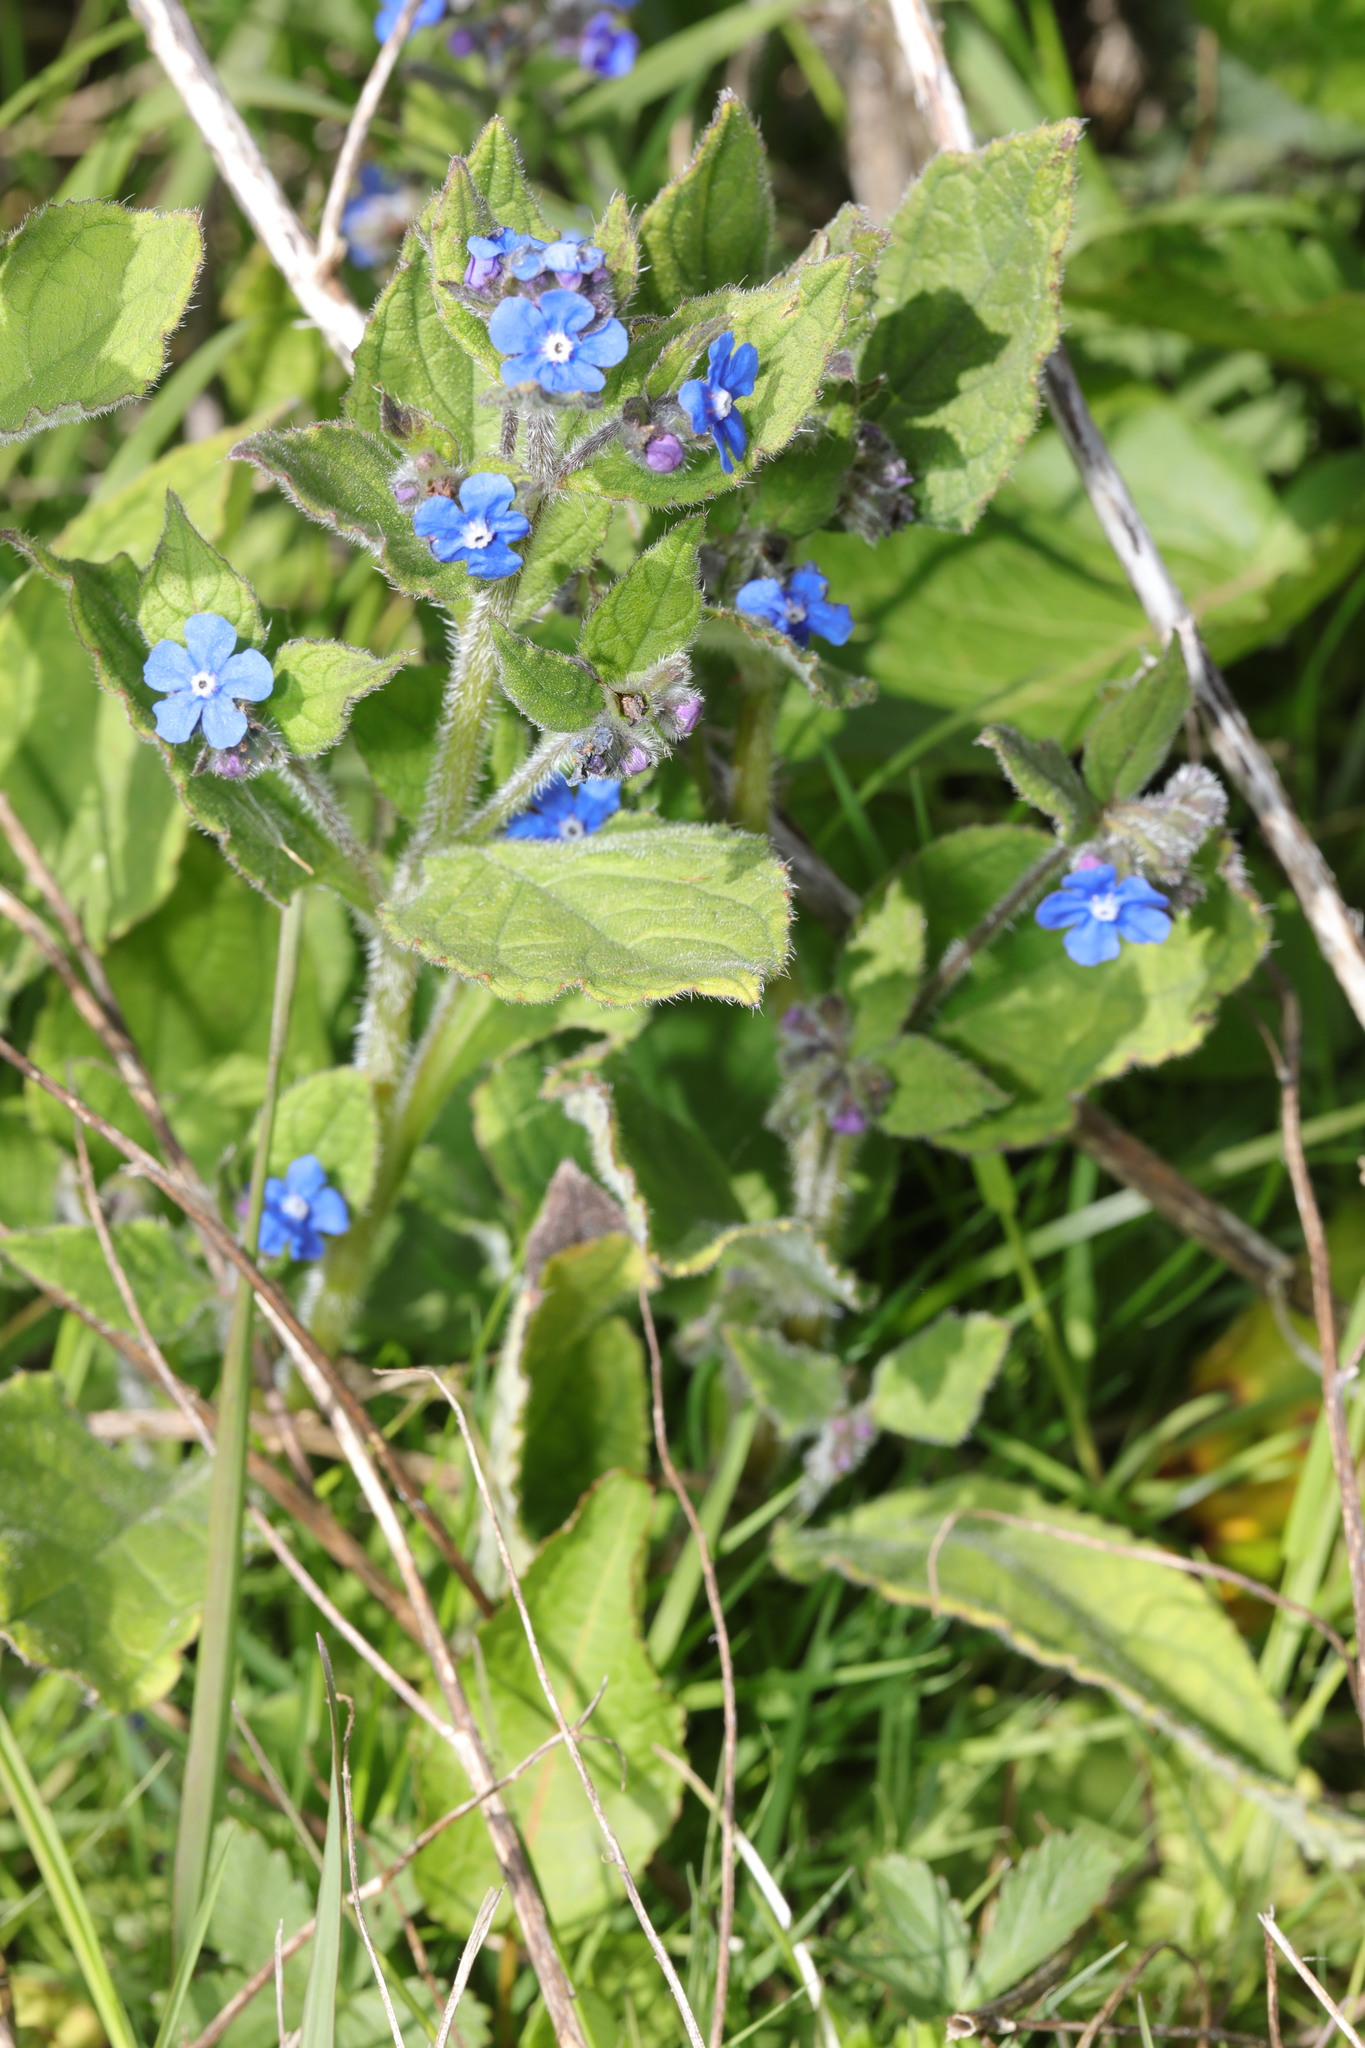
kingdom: Plantae
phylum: Tracheophyta
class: Magnoliopsida
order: Boraginales
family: Boraginaceae
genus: Pentaglottis
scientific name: Pentaglottis sempervirens
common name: Green alkanet
